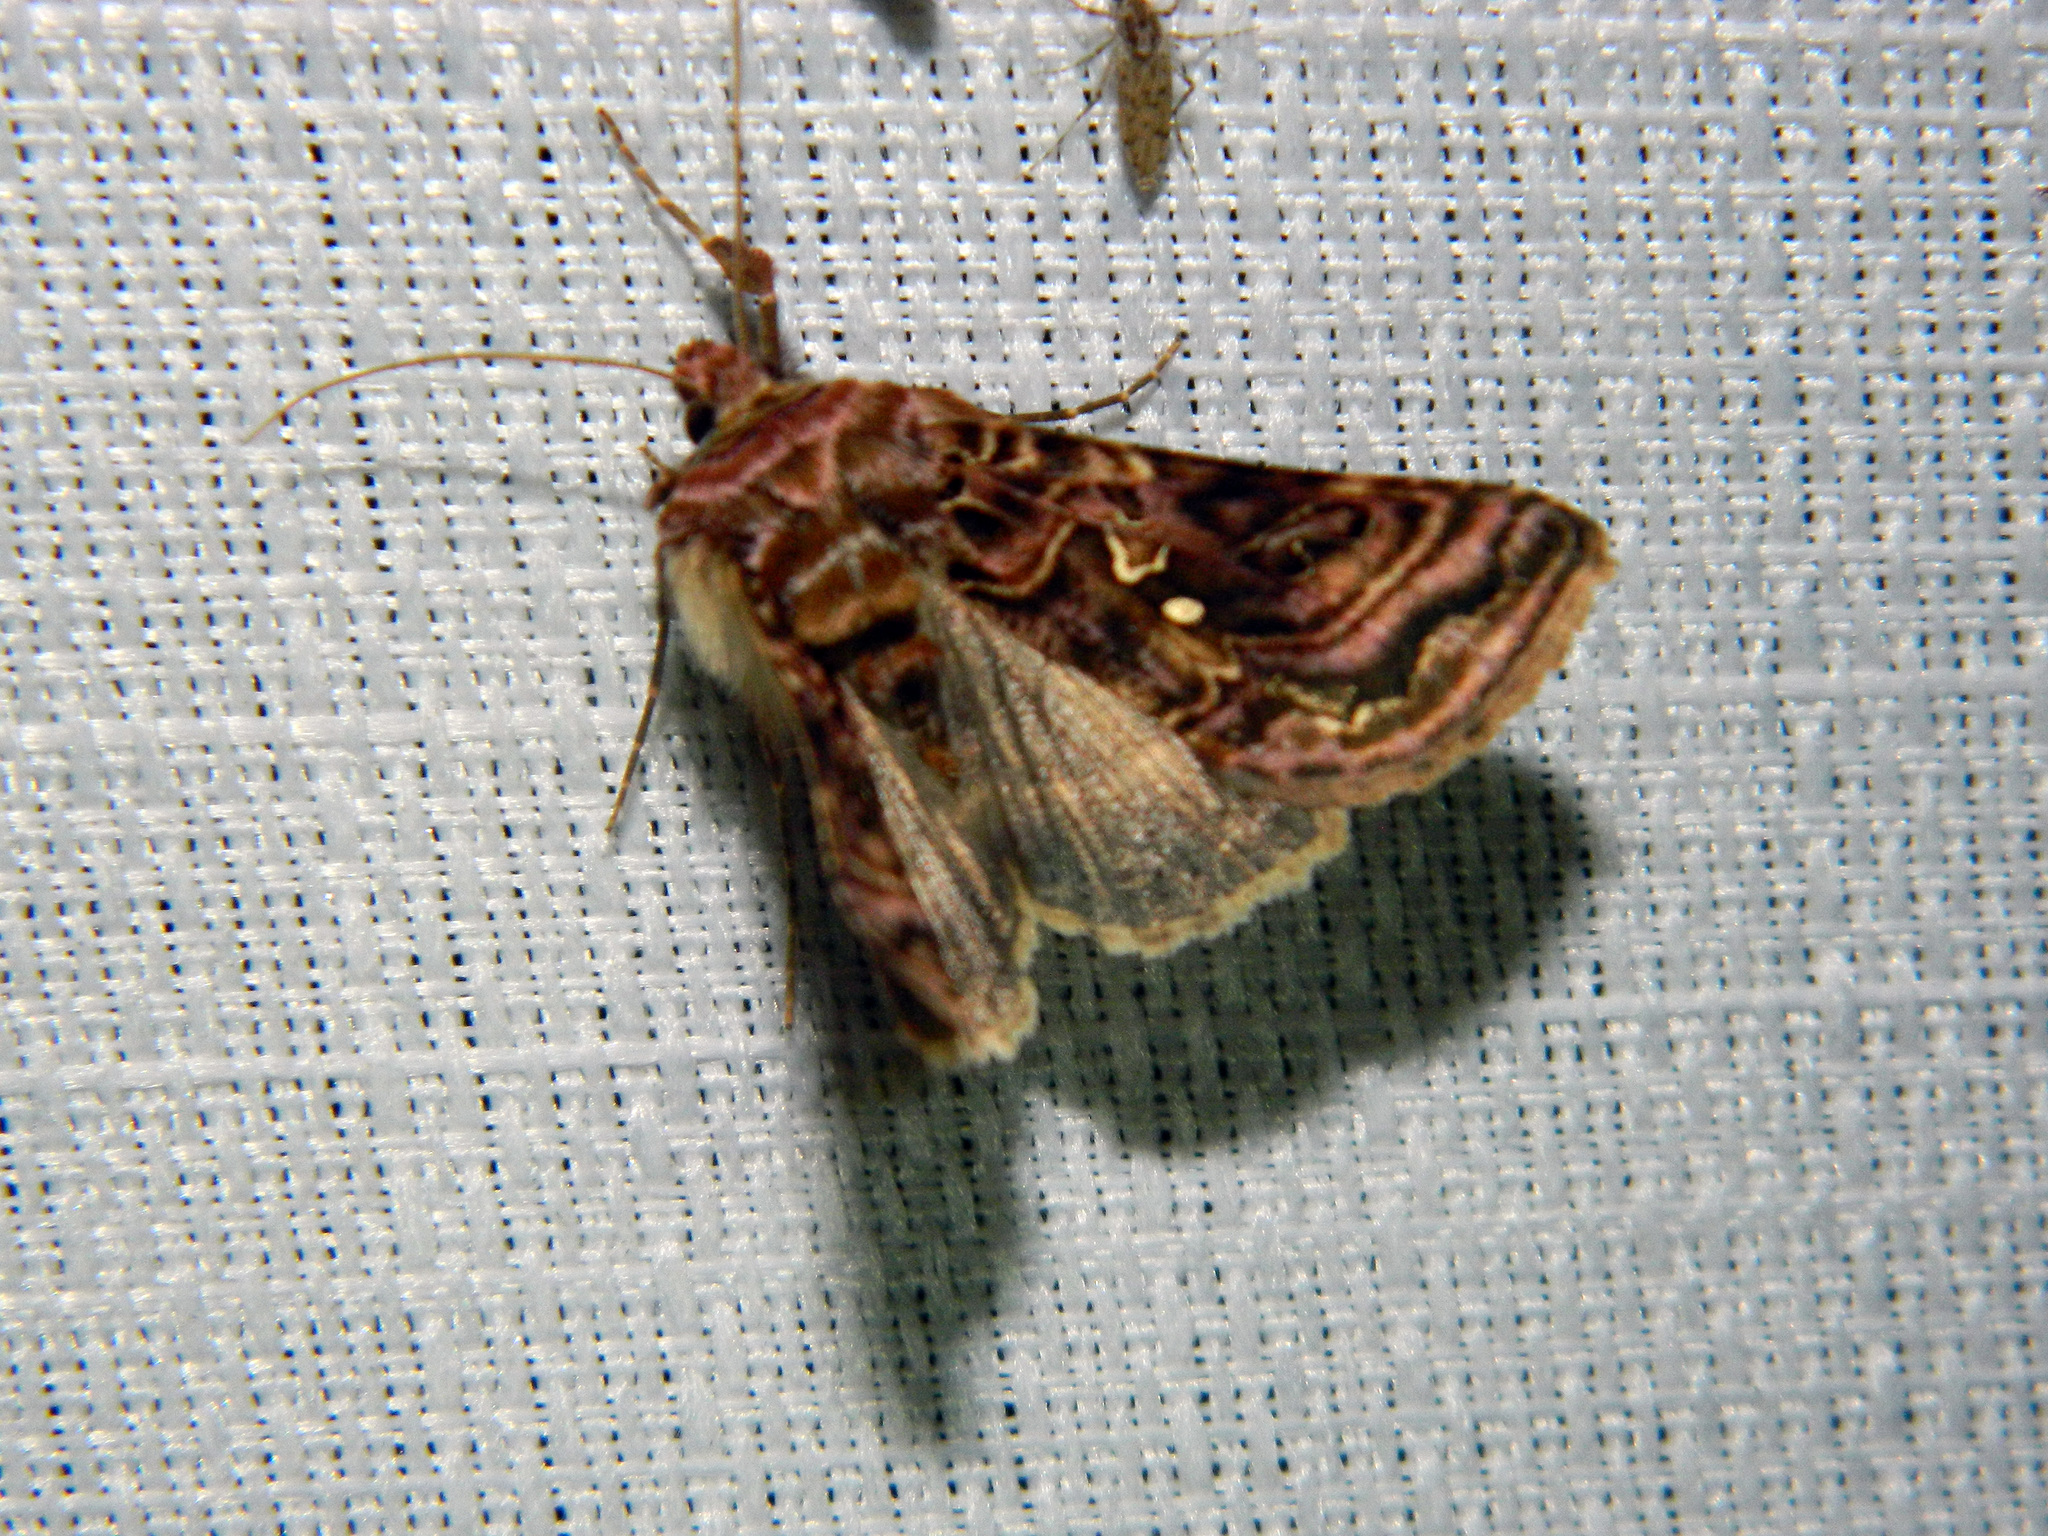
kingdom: Animalia
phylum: Arthropoda
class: Insecta
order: Lepidoptera
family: Noctuidae
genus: Autographa
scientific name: Autographa mappa
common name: Wavy chestnut y moth
